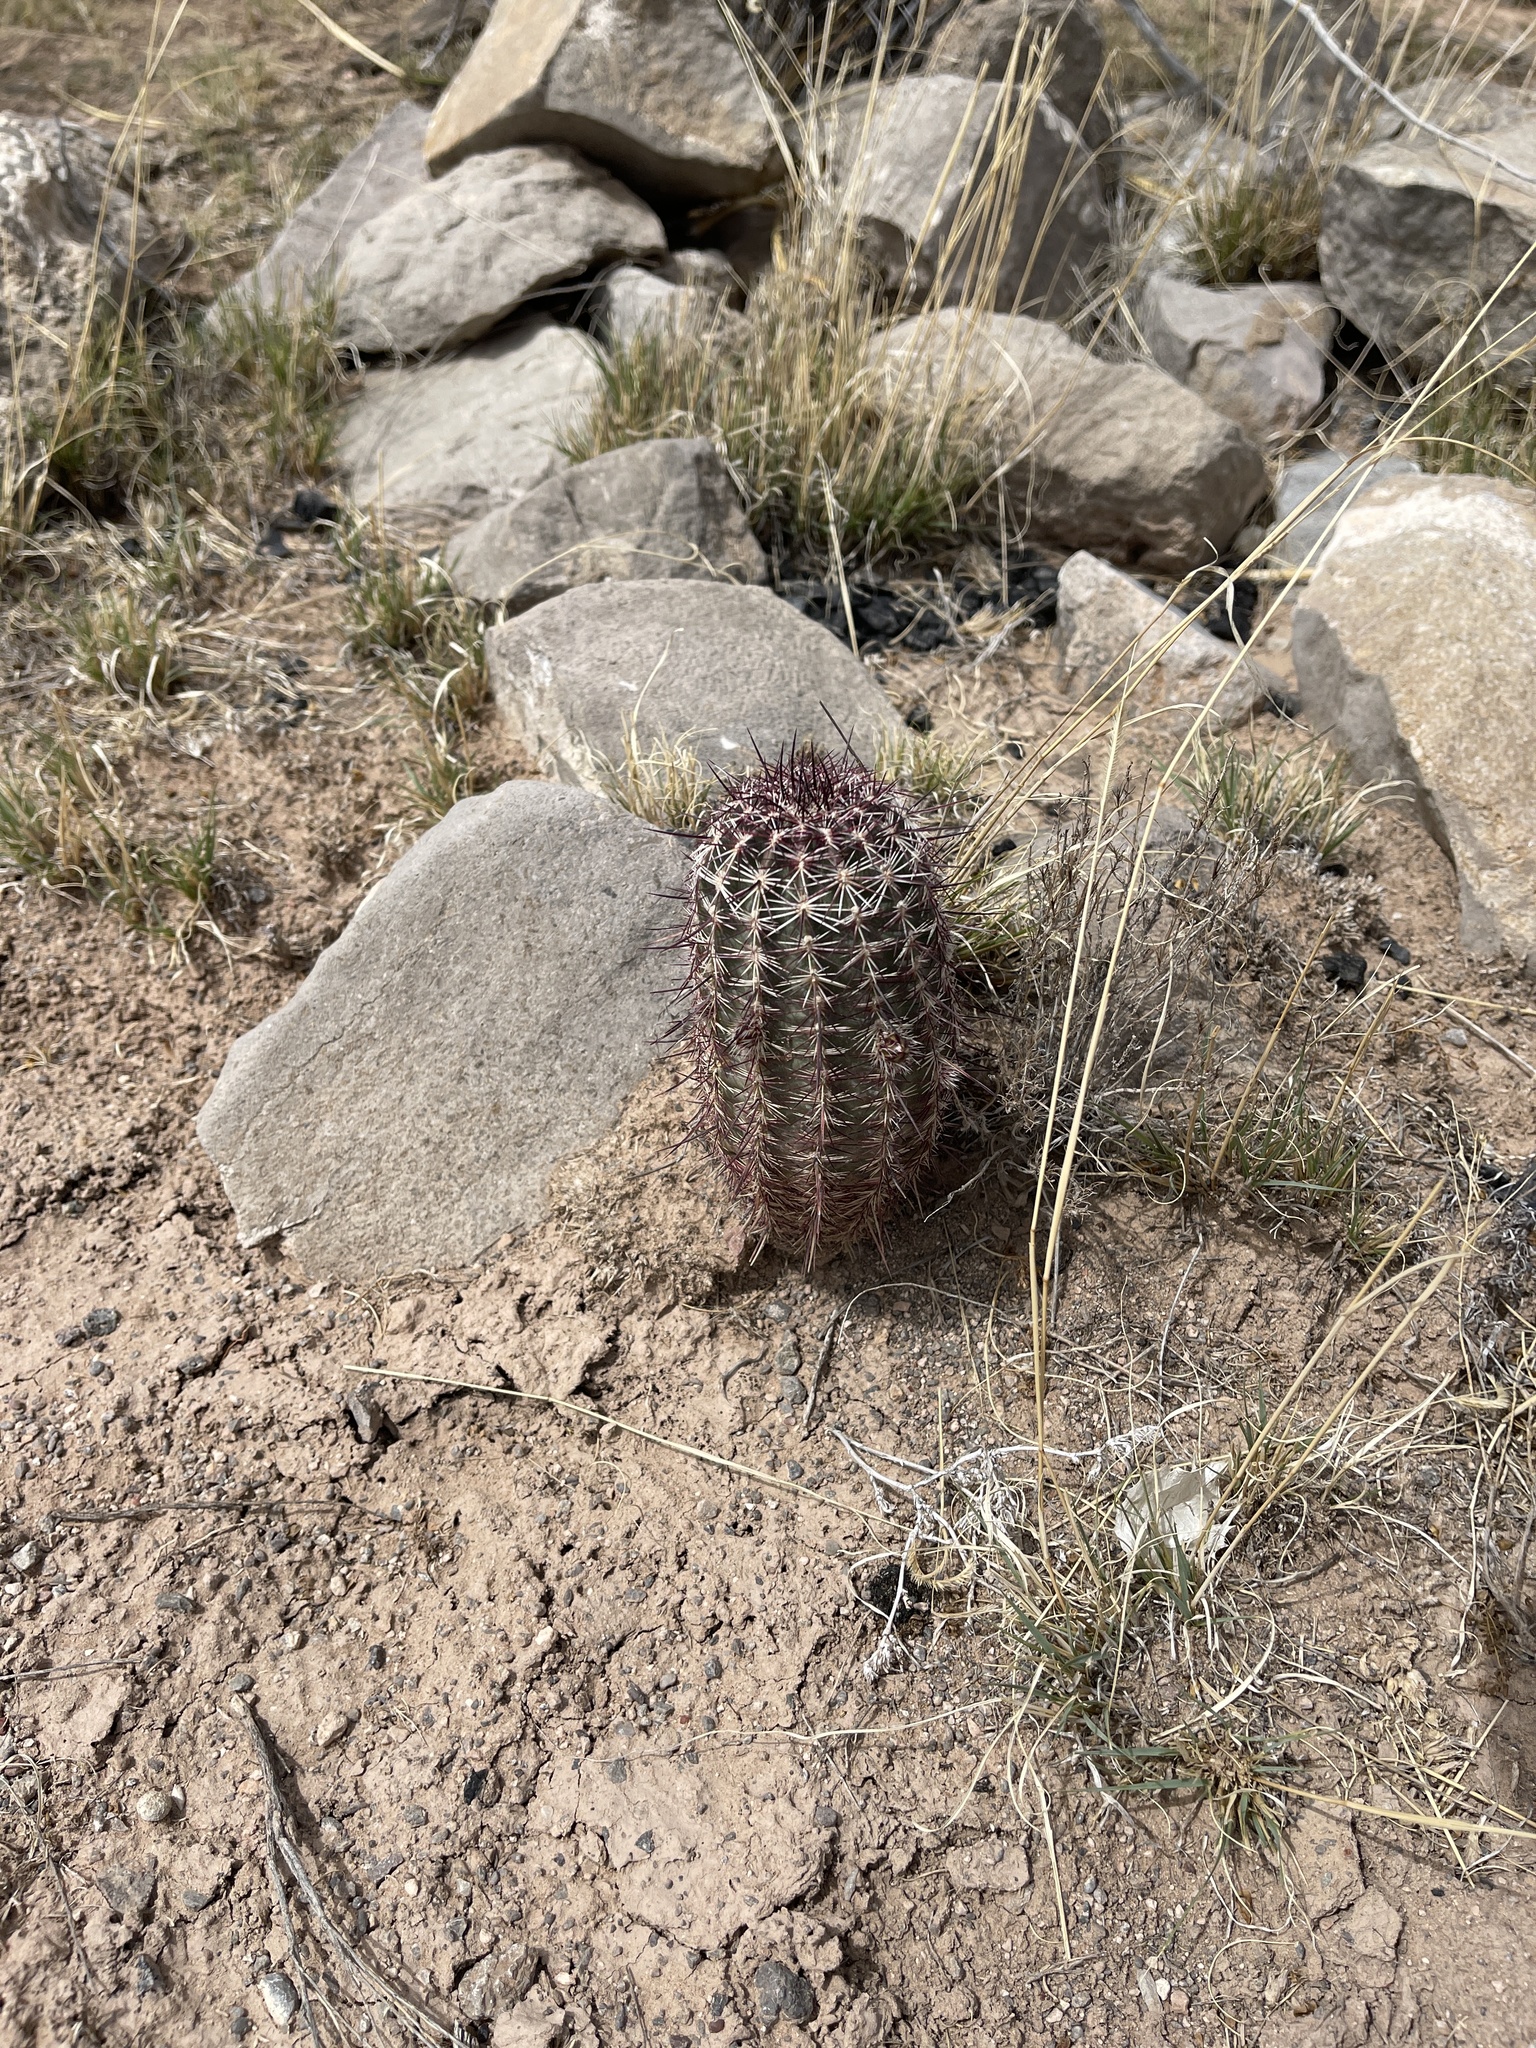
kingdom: Plantae
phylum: Tracheophyta
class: Magnoliopsida
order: Caryophyllales
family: Cactaceae
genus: Echinocereus
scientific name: Echinocereus viridiflorus
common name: Nylon hedgehog cactus
